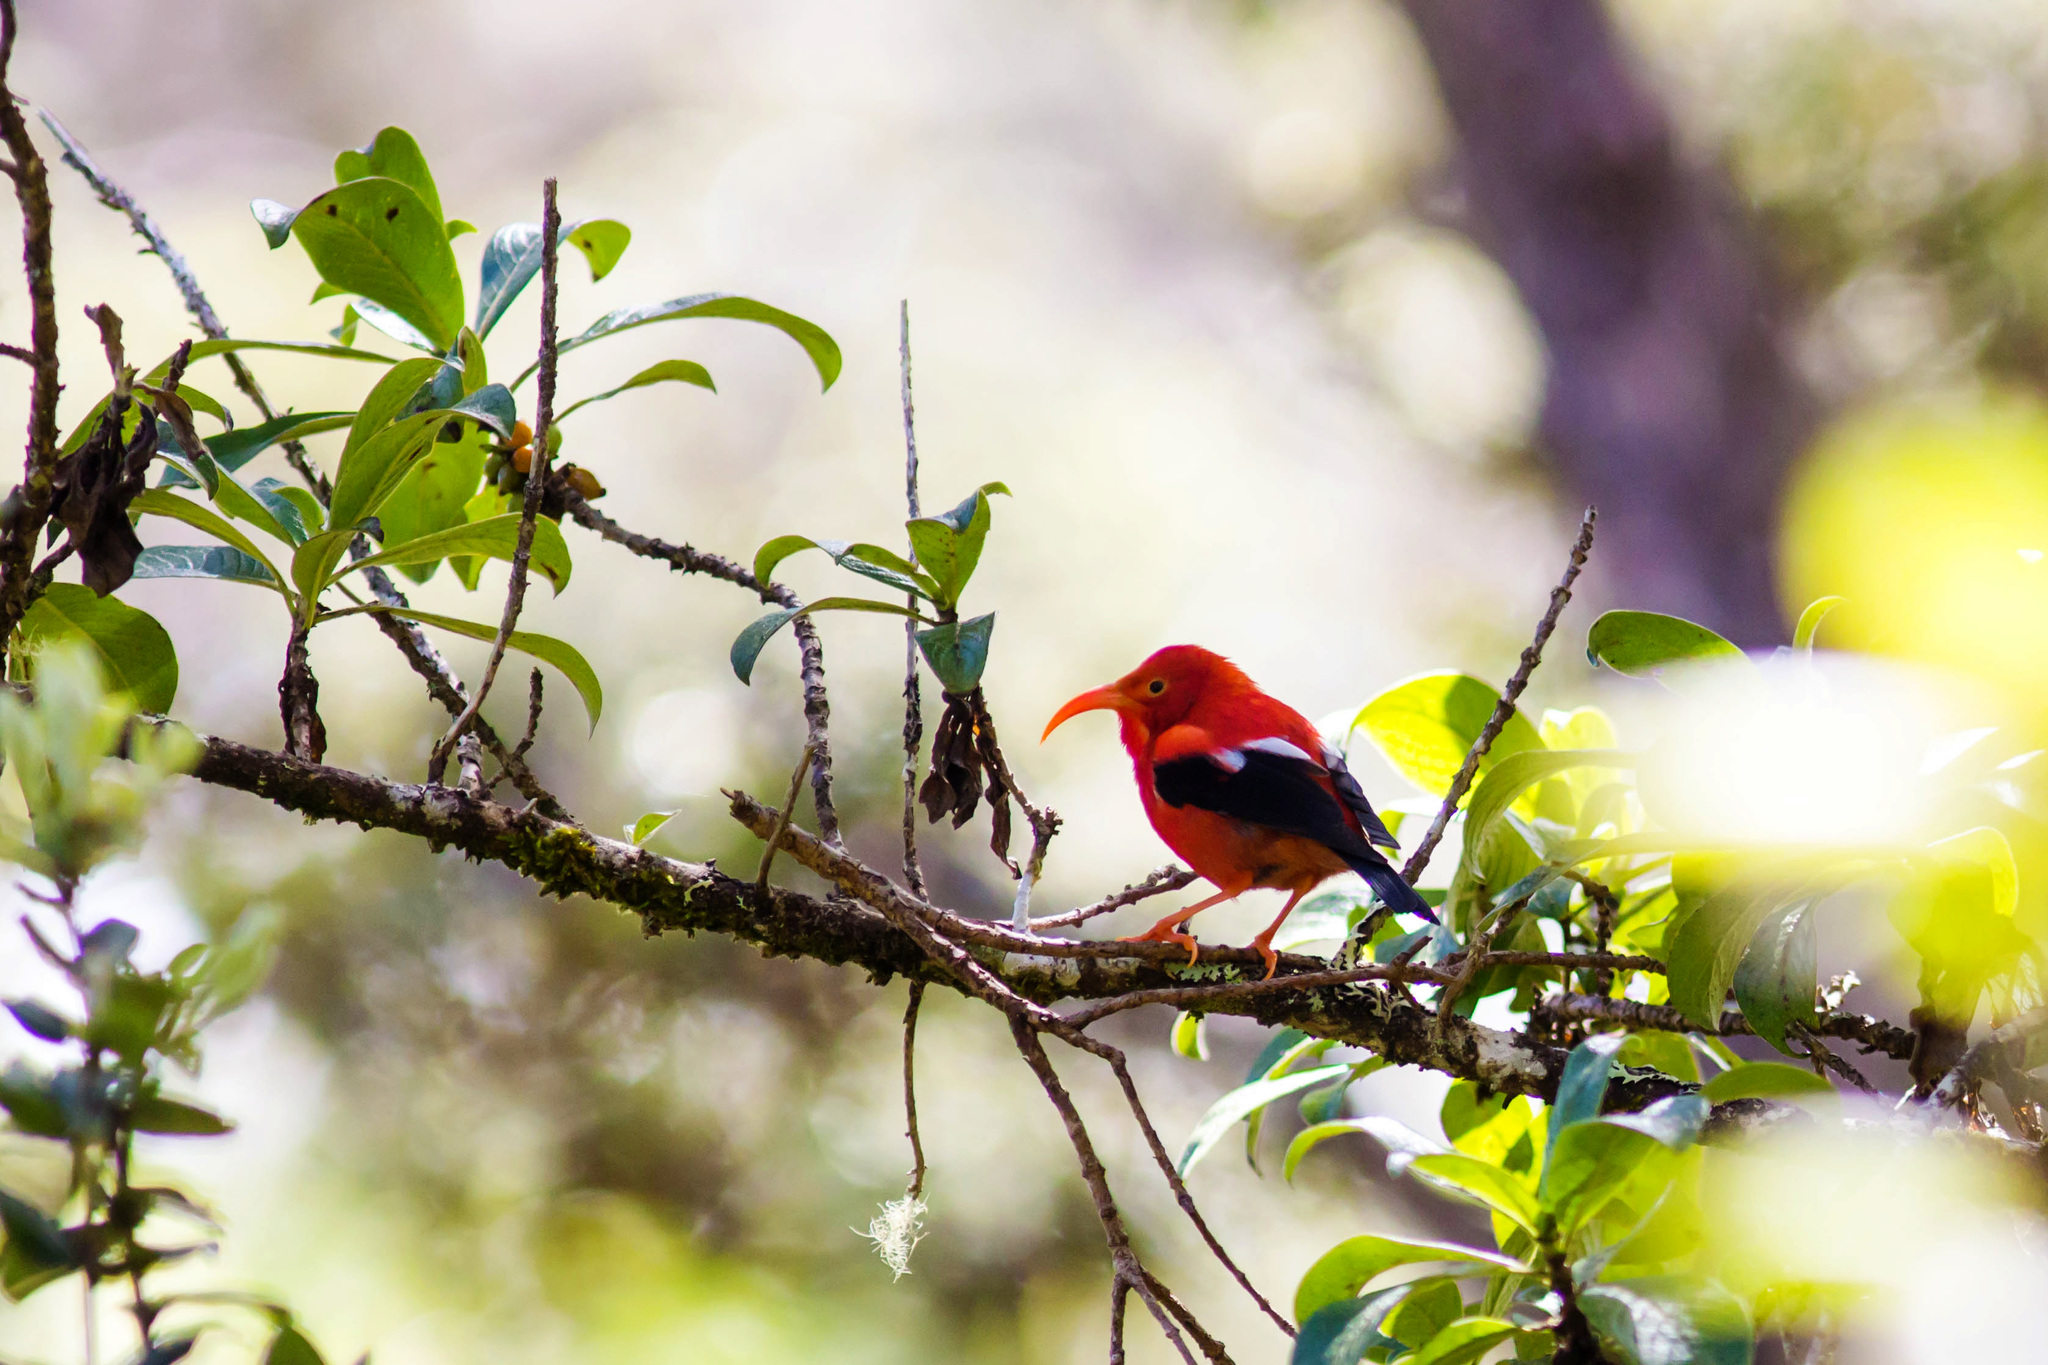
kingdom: Animalia
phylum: Chordata
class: Aves
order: Passeriformes
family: Fringillidae
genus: Vestiaria
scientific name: Vestiaria coccinea
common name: Iiwi
